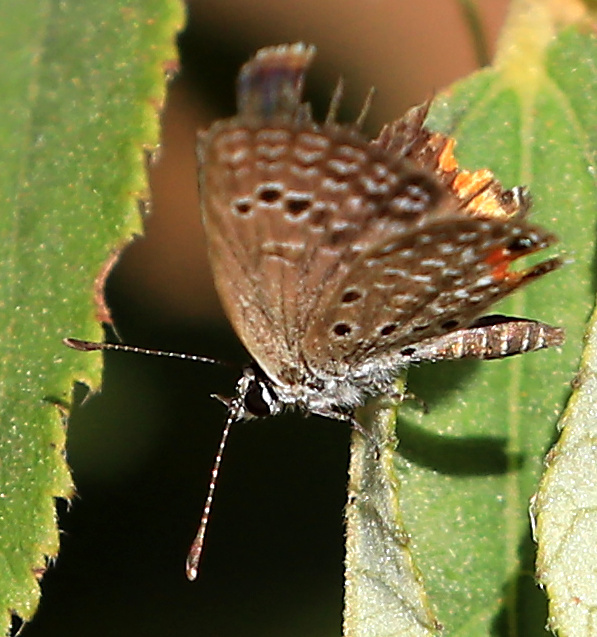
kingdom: Animalia
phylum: Arthropoda
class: Insecta
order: Lepidoptera
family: Lycaenidae
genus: Freyeria
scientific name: Freyeria trochylus
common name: Grass jewel
